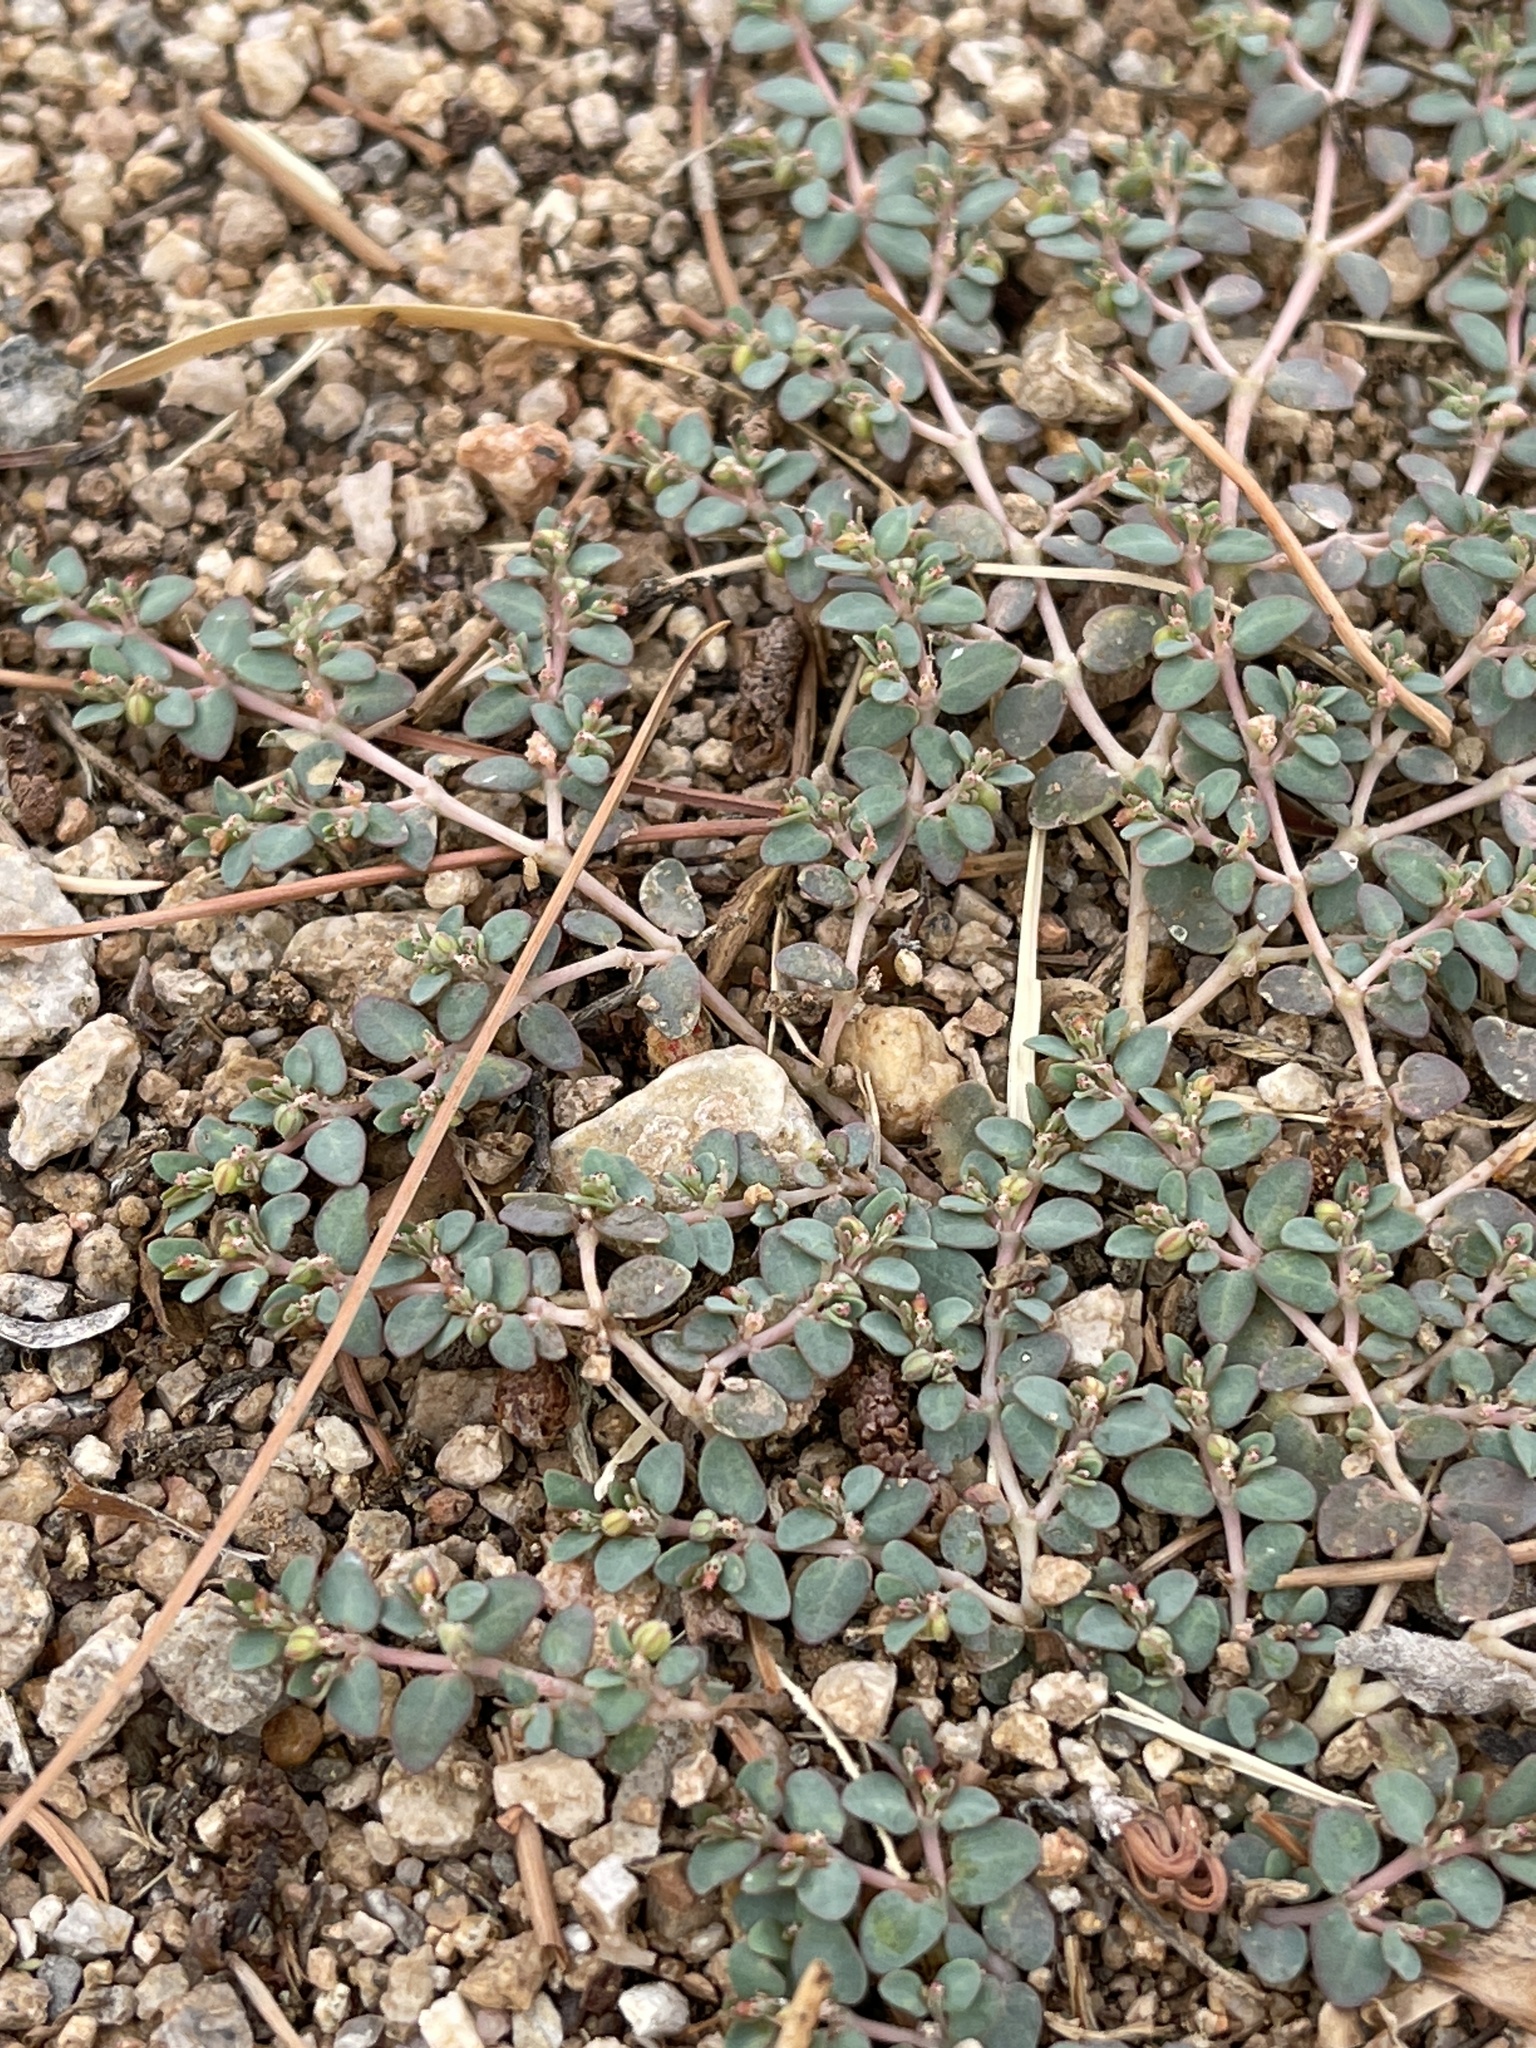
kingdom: Plantae
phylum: Tracheophyta
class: Magnoliopsida
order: Malpighiales
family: Euphorbiaceae
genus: Euphorbia
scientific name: Euphorbia micromera
